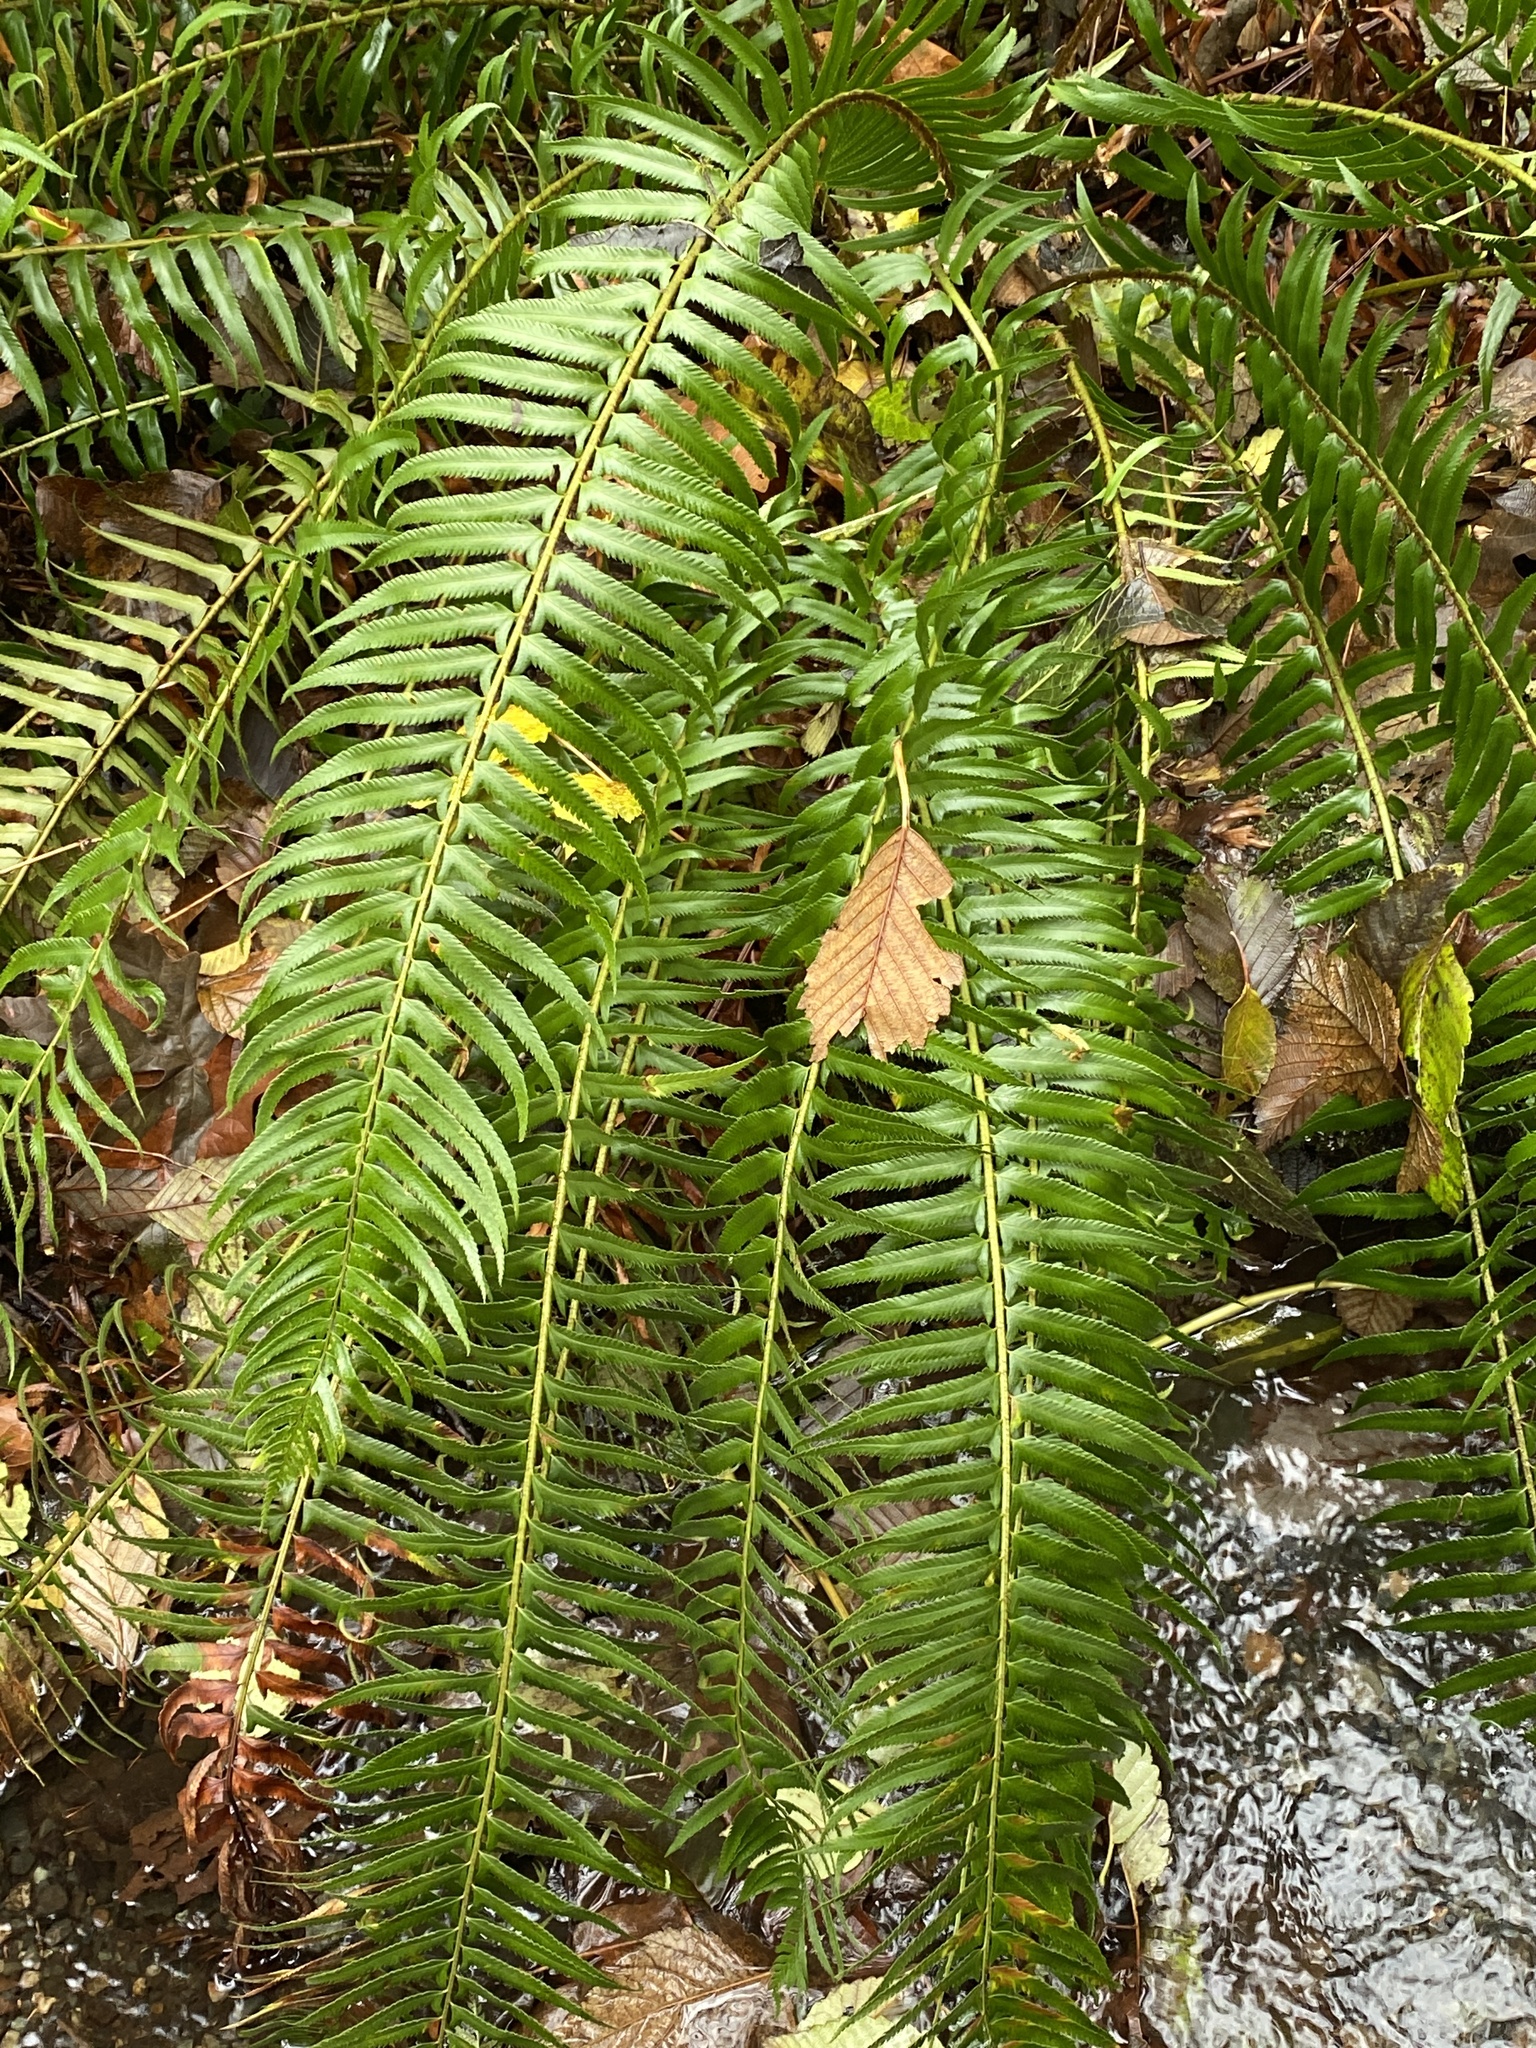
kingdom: Plantae
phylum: Tracheophyta
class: Polypodiopsida
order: Polypodiales
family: Dryopteridaceae
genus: Polystichum
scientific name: Polystichum munitum
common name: Western sword-fern
